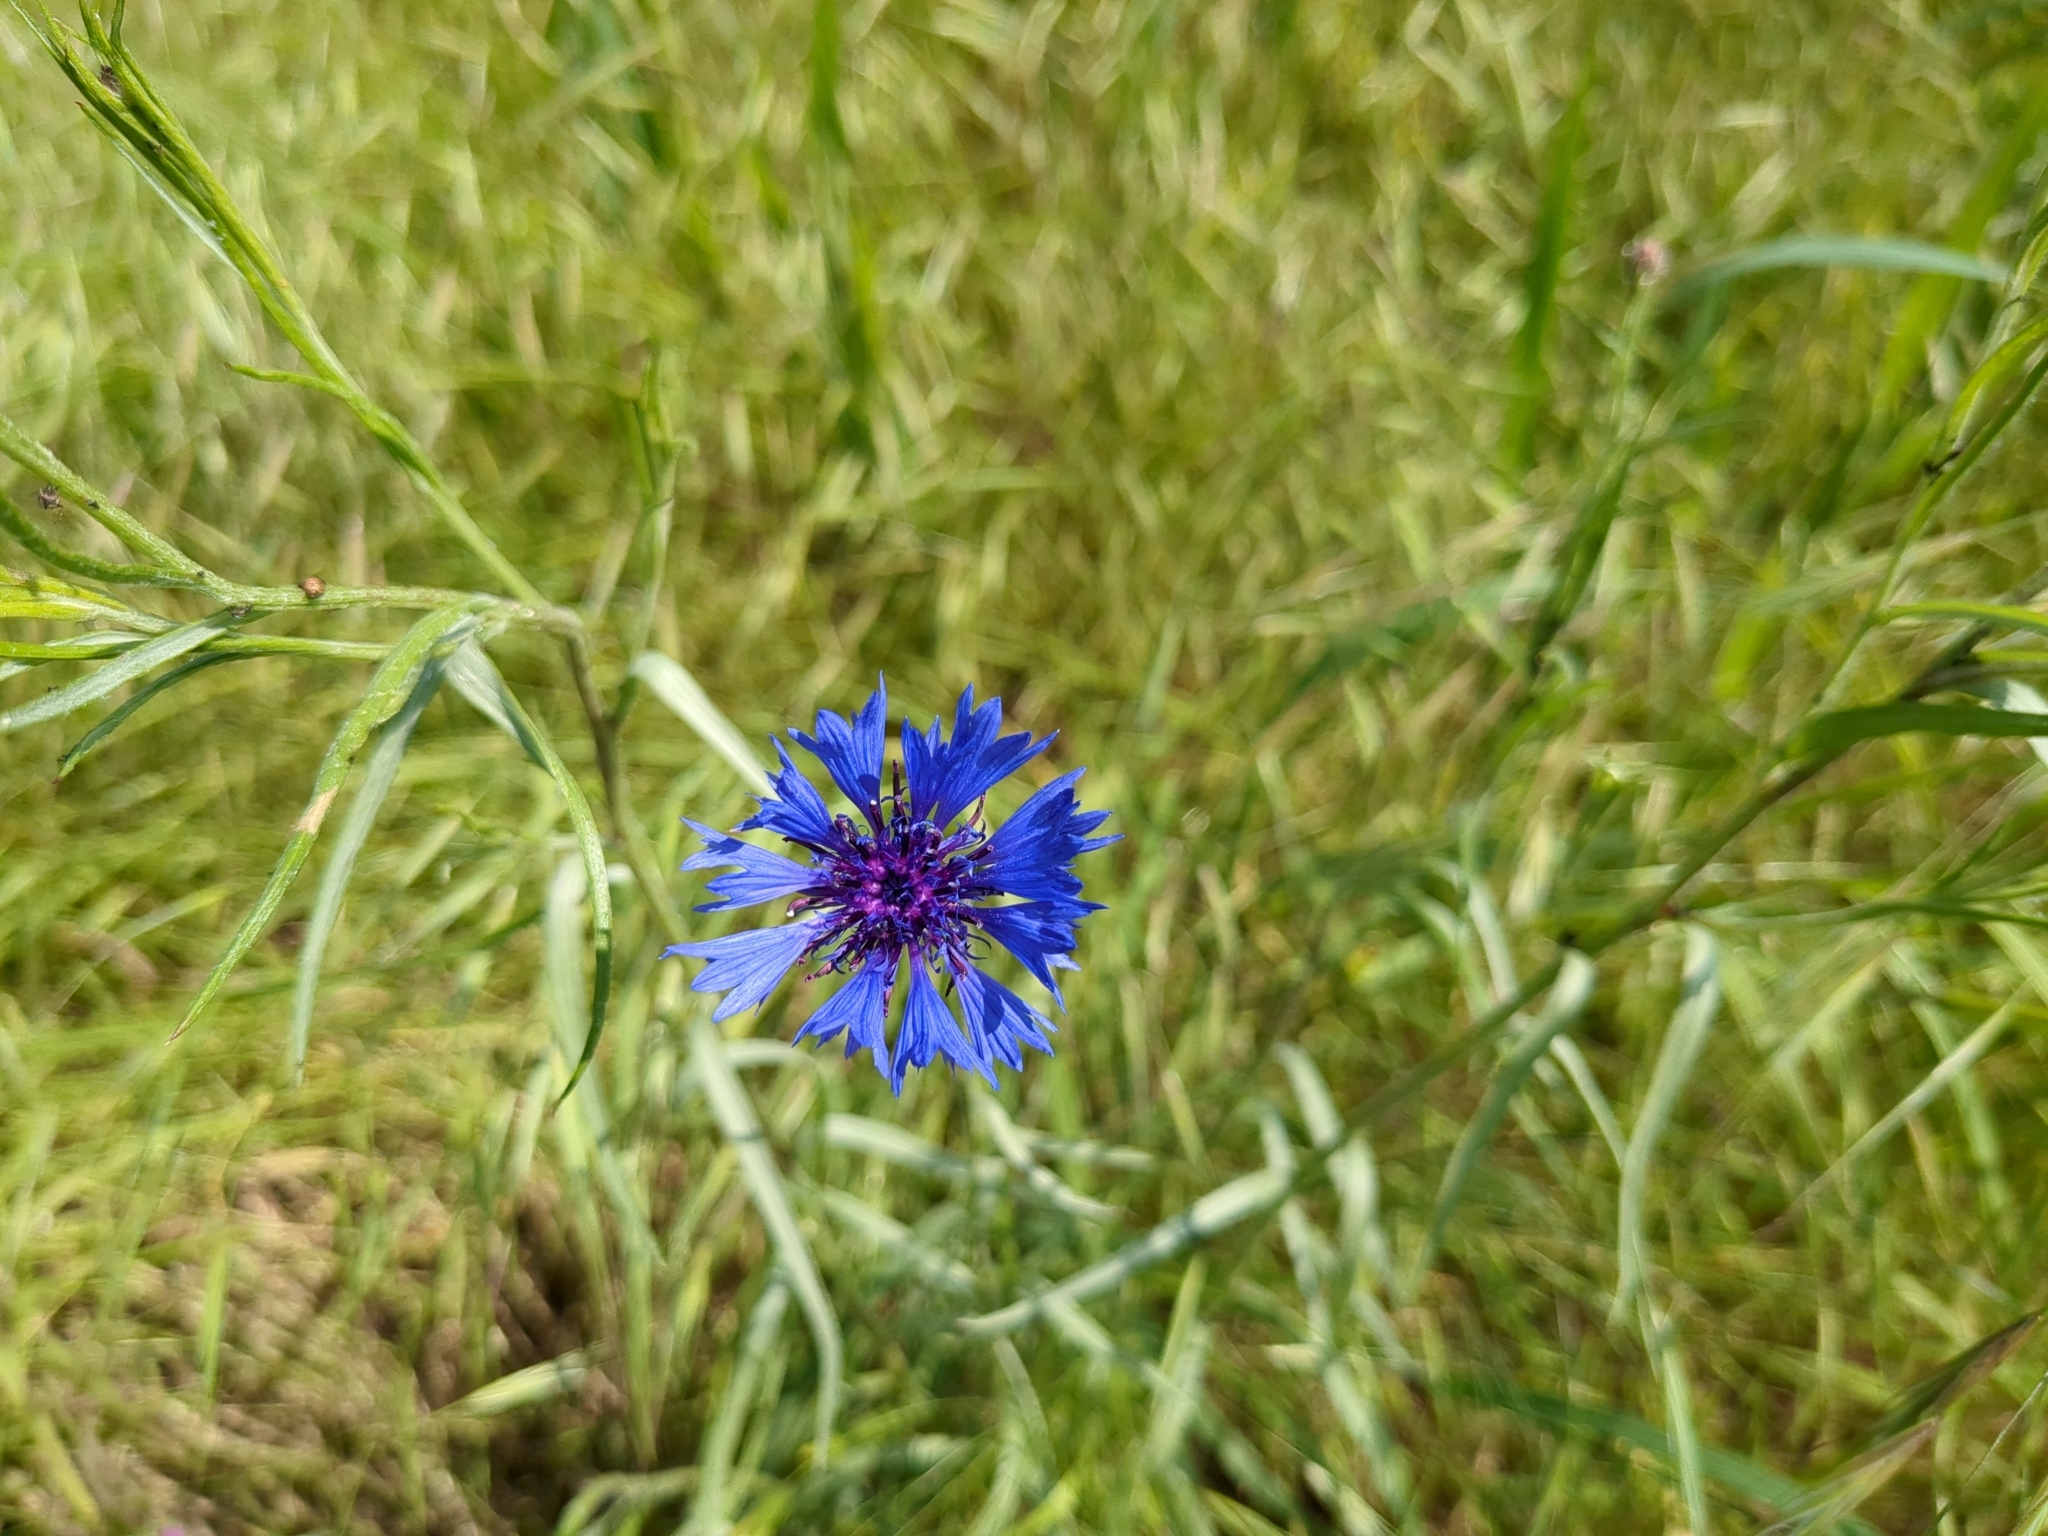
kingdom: Plantae
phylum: Tracheophyta
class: Magnoliopsida
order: Asterales
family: Asteraceae
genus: Centaurea
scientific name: Centaurea cyanus
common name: Cornflower
